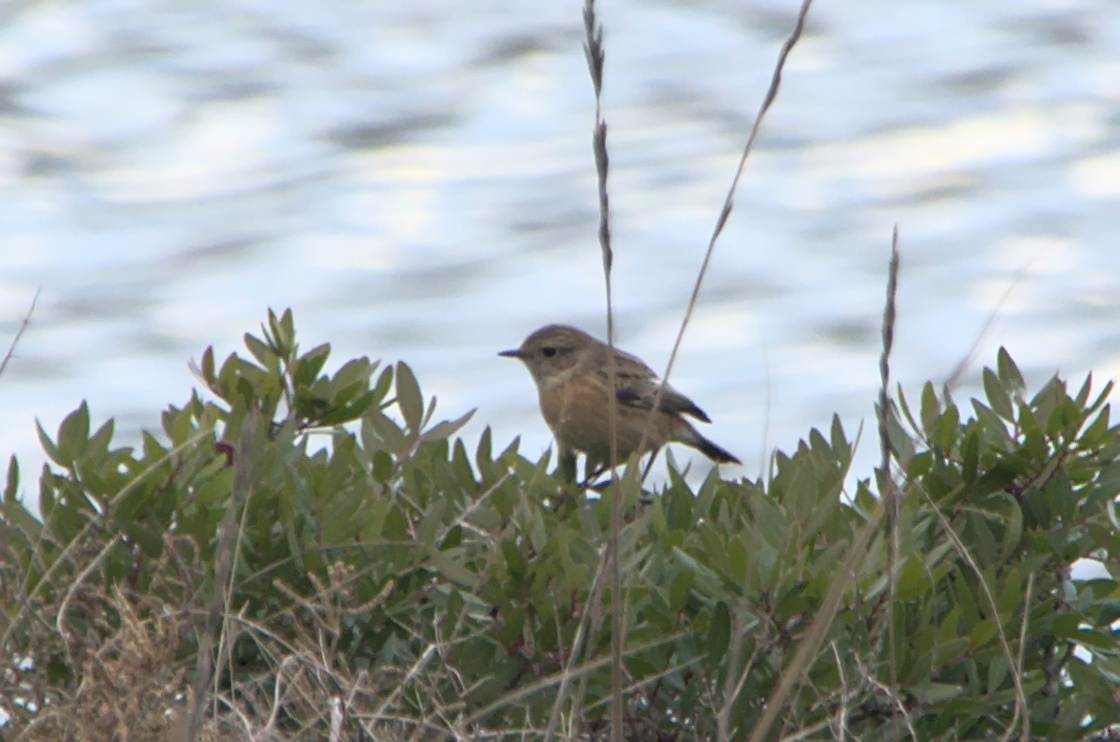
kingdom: Animalia
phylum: Chordata
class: Aves
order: Passeriformes
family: Muscicapidae
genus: Saxicola
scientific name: Saxicola rubicola
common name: European stonechat
